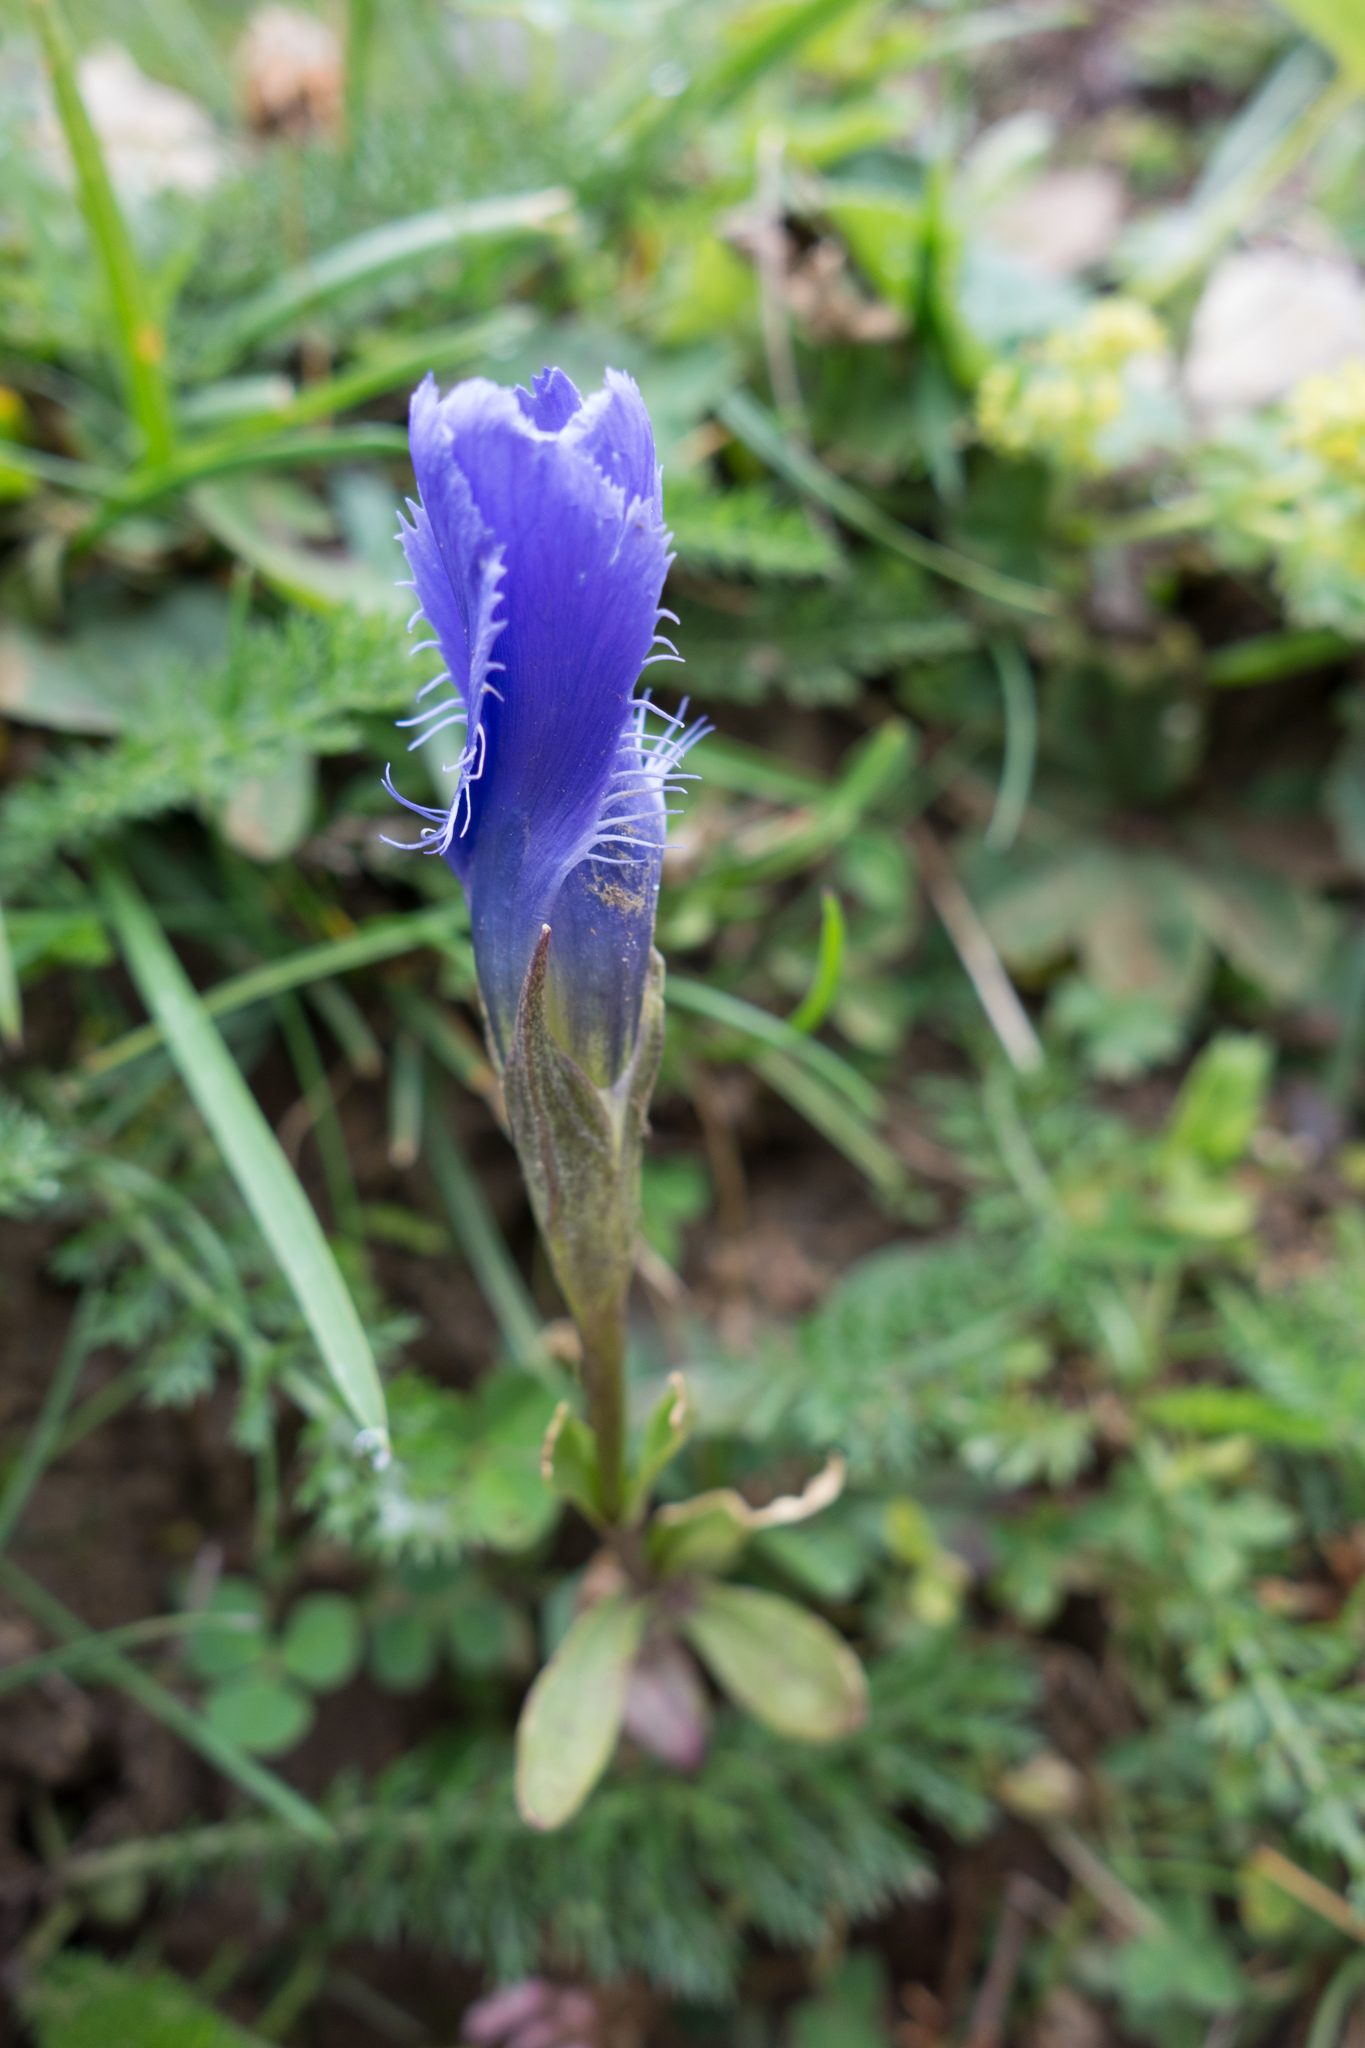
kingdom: Plantae
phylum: Tracheophyta
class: Magnoliopsida
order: Gentianales
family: Gentianaceae
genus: Gentianopsis
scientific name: Gentianopsis ciliata
